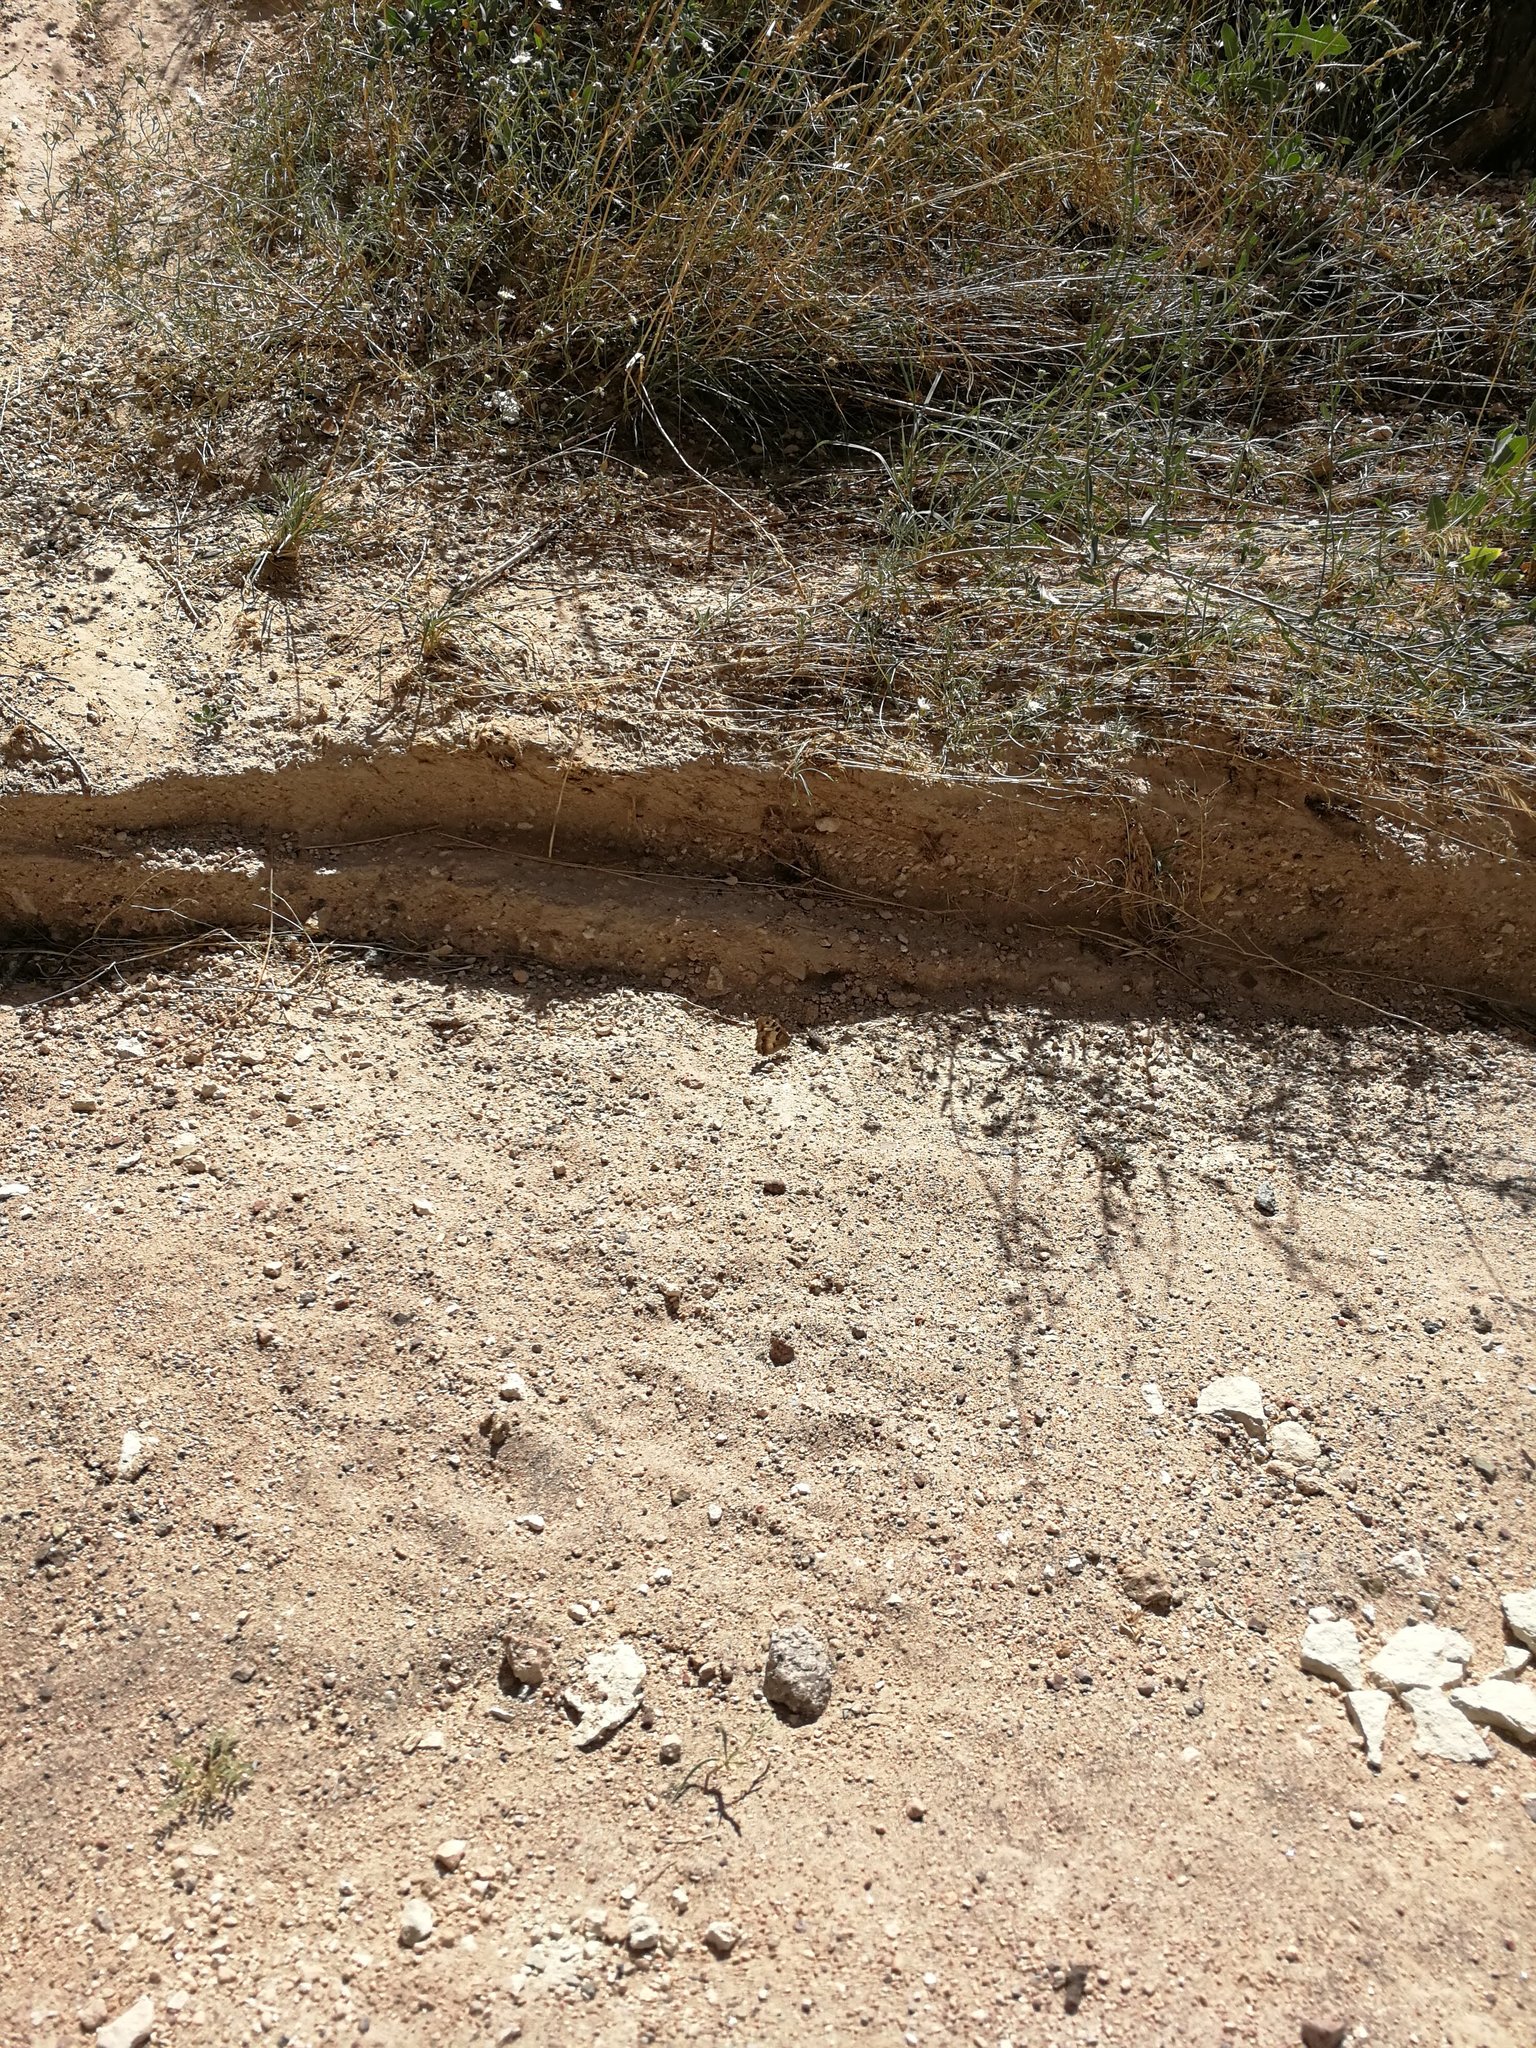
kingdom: Animalia
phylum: Arthropoda
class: Insecta
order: Lepidoptera
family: Nymphalidae
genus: Satyrus
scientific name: Satyrus briseis
